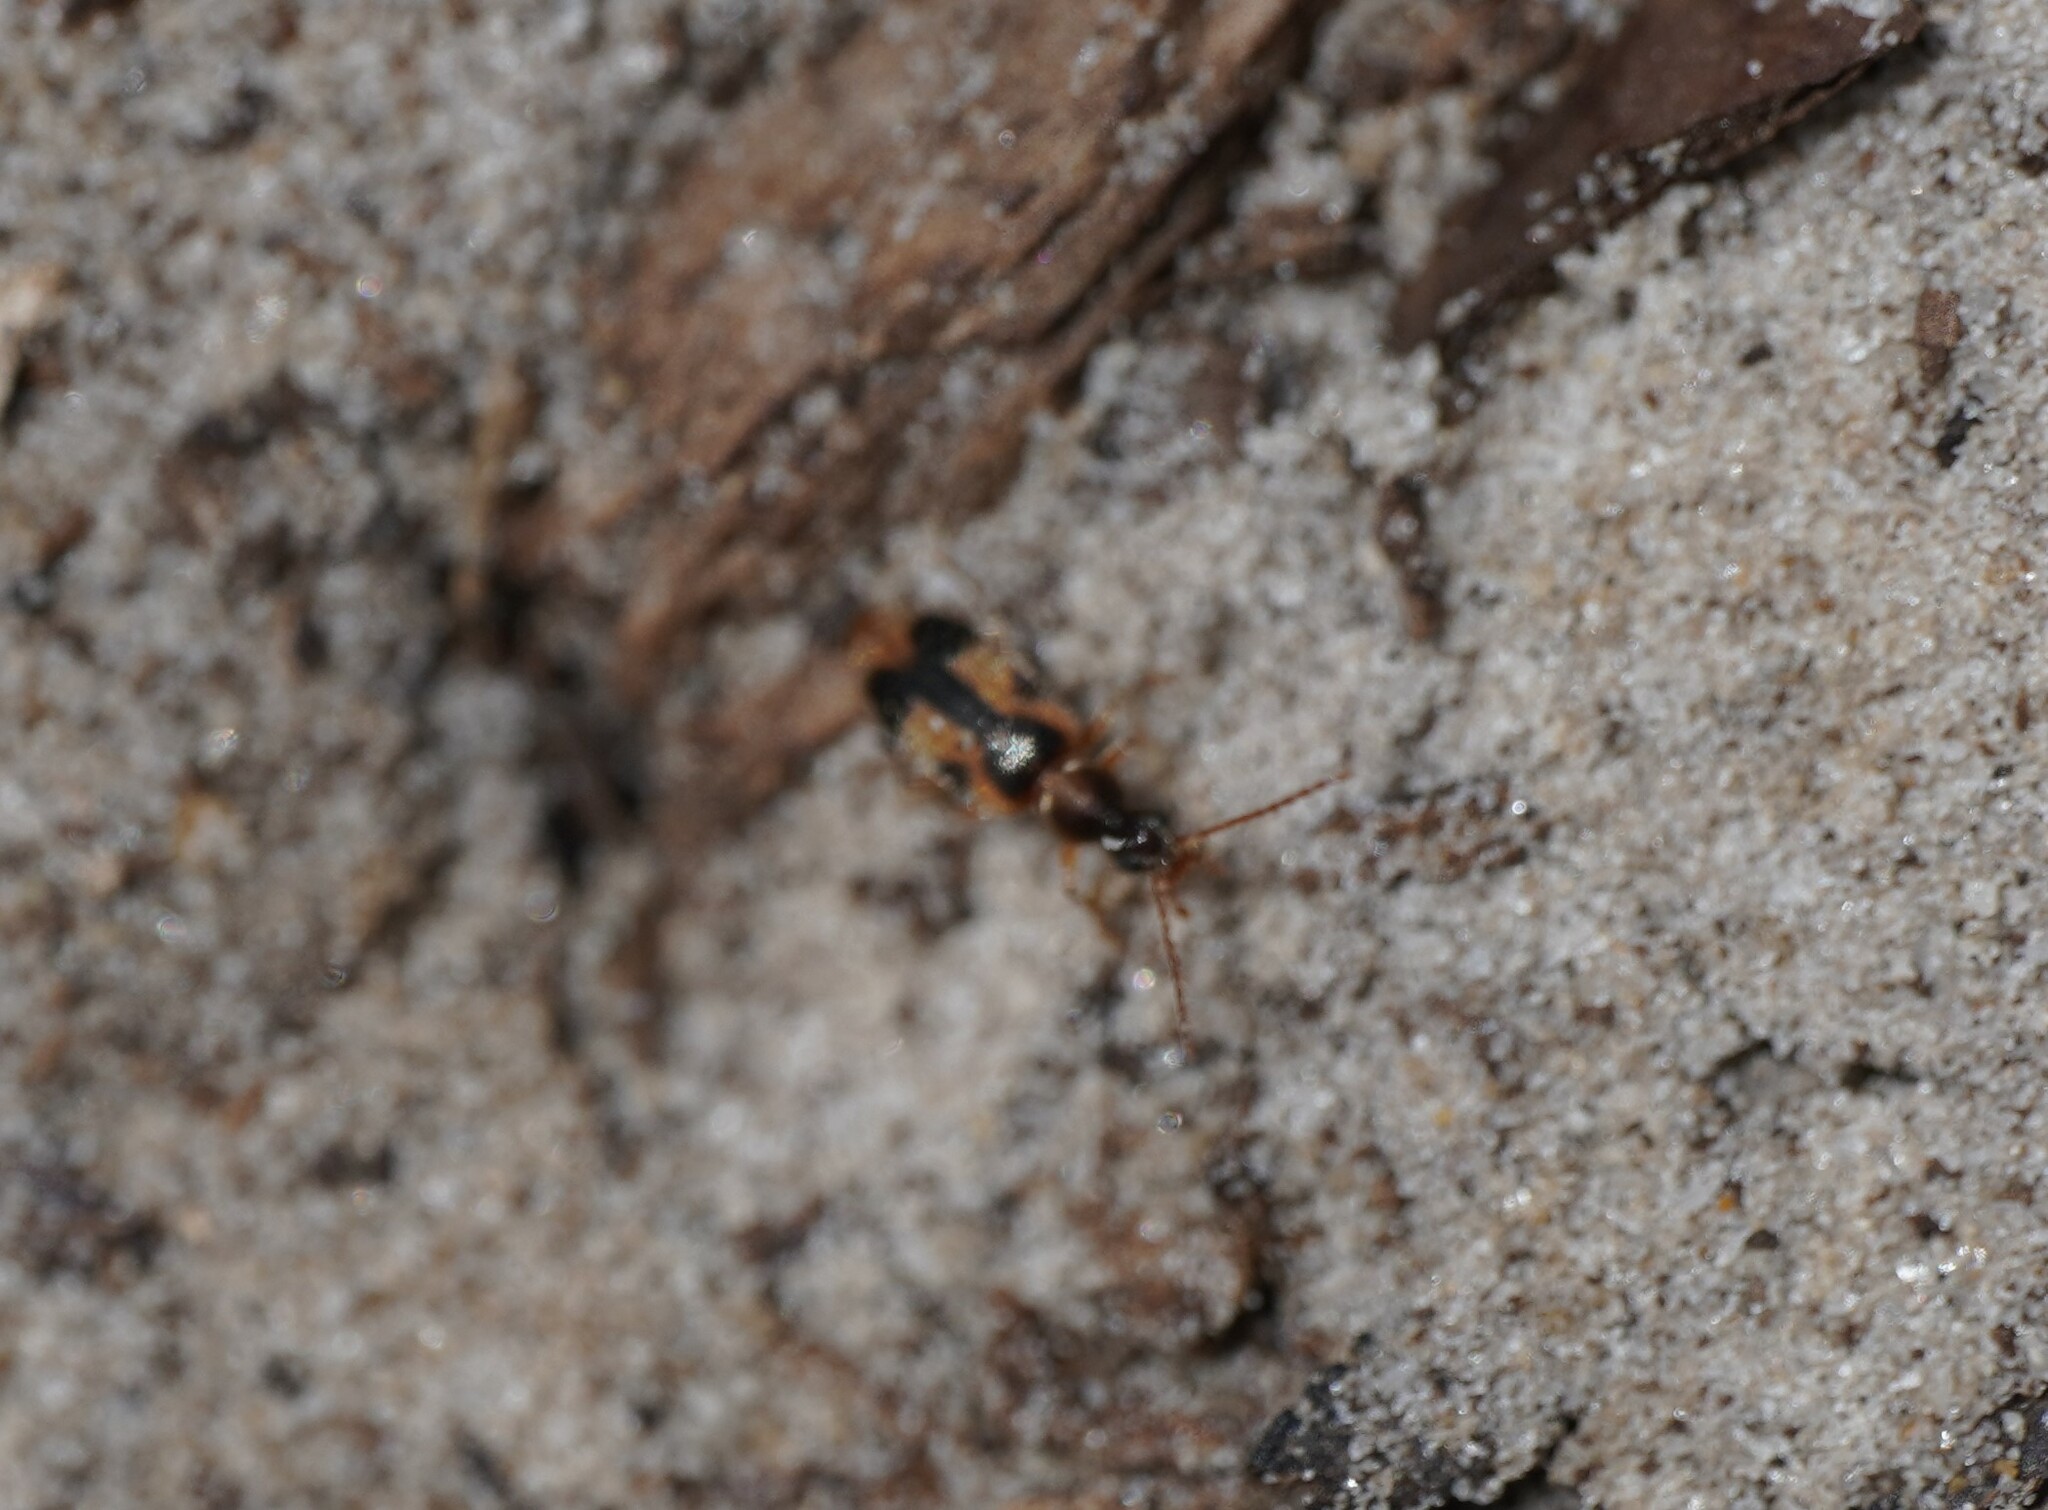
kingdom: Animalia
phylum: Arthropoda
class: Insecta
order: Coleoptera
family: Anthicidae
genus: Notoxus
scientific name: Notoxus monoceros
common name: Monoceros beetle
